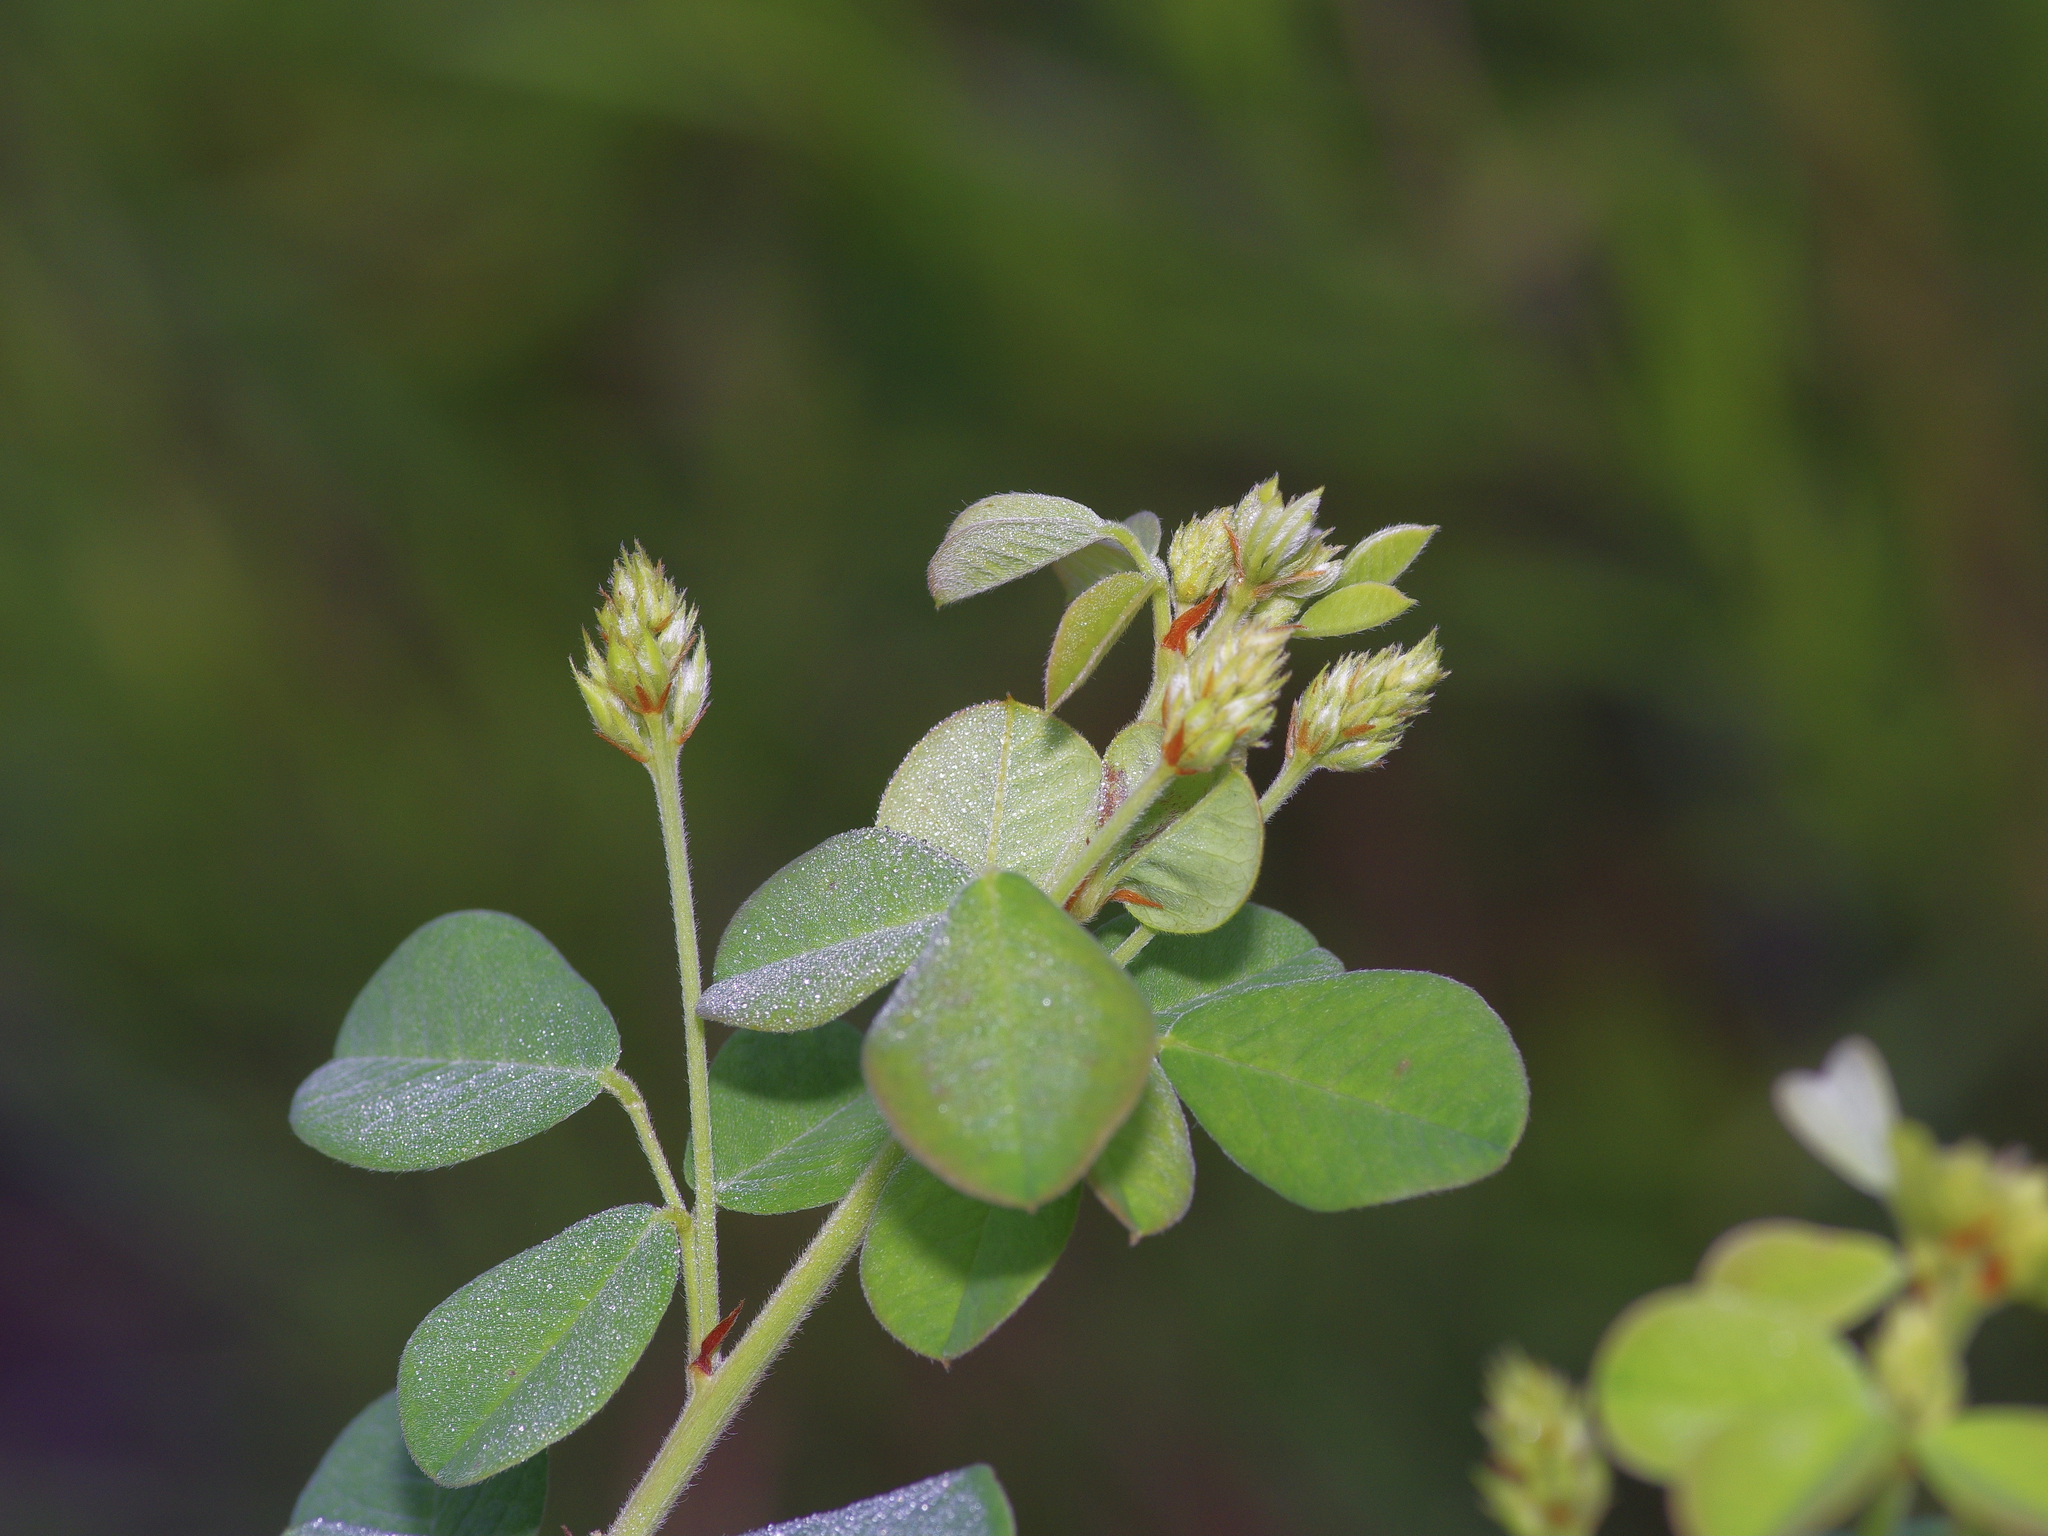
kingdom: Plantae
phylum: Tracheophyta
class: Magnoliopsida
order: Fabales
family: Fabaceae
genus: Lespedeza
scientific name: Lespedeza hirta
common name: Hairy lespedeza
